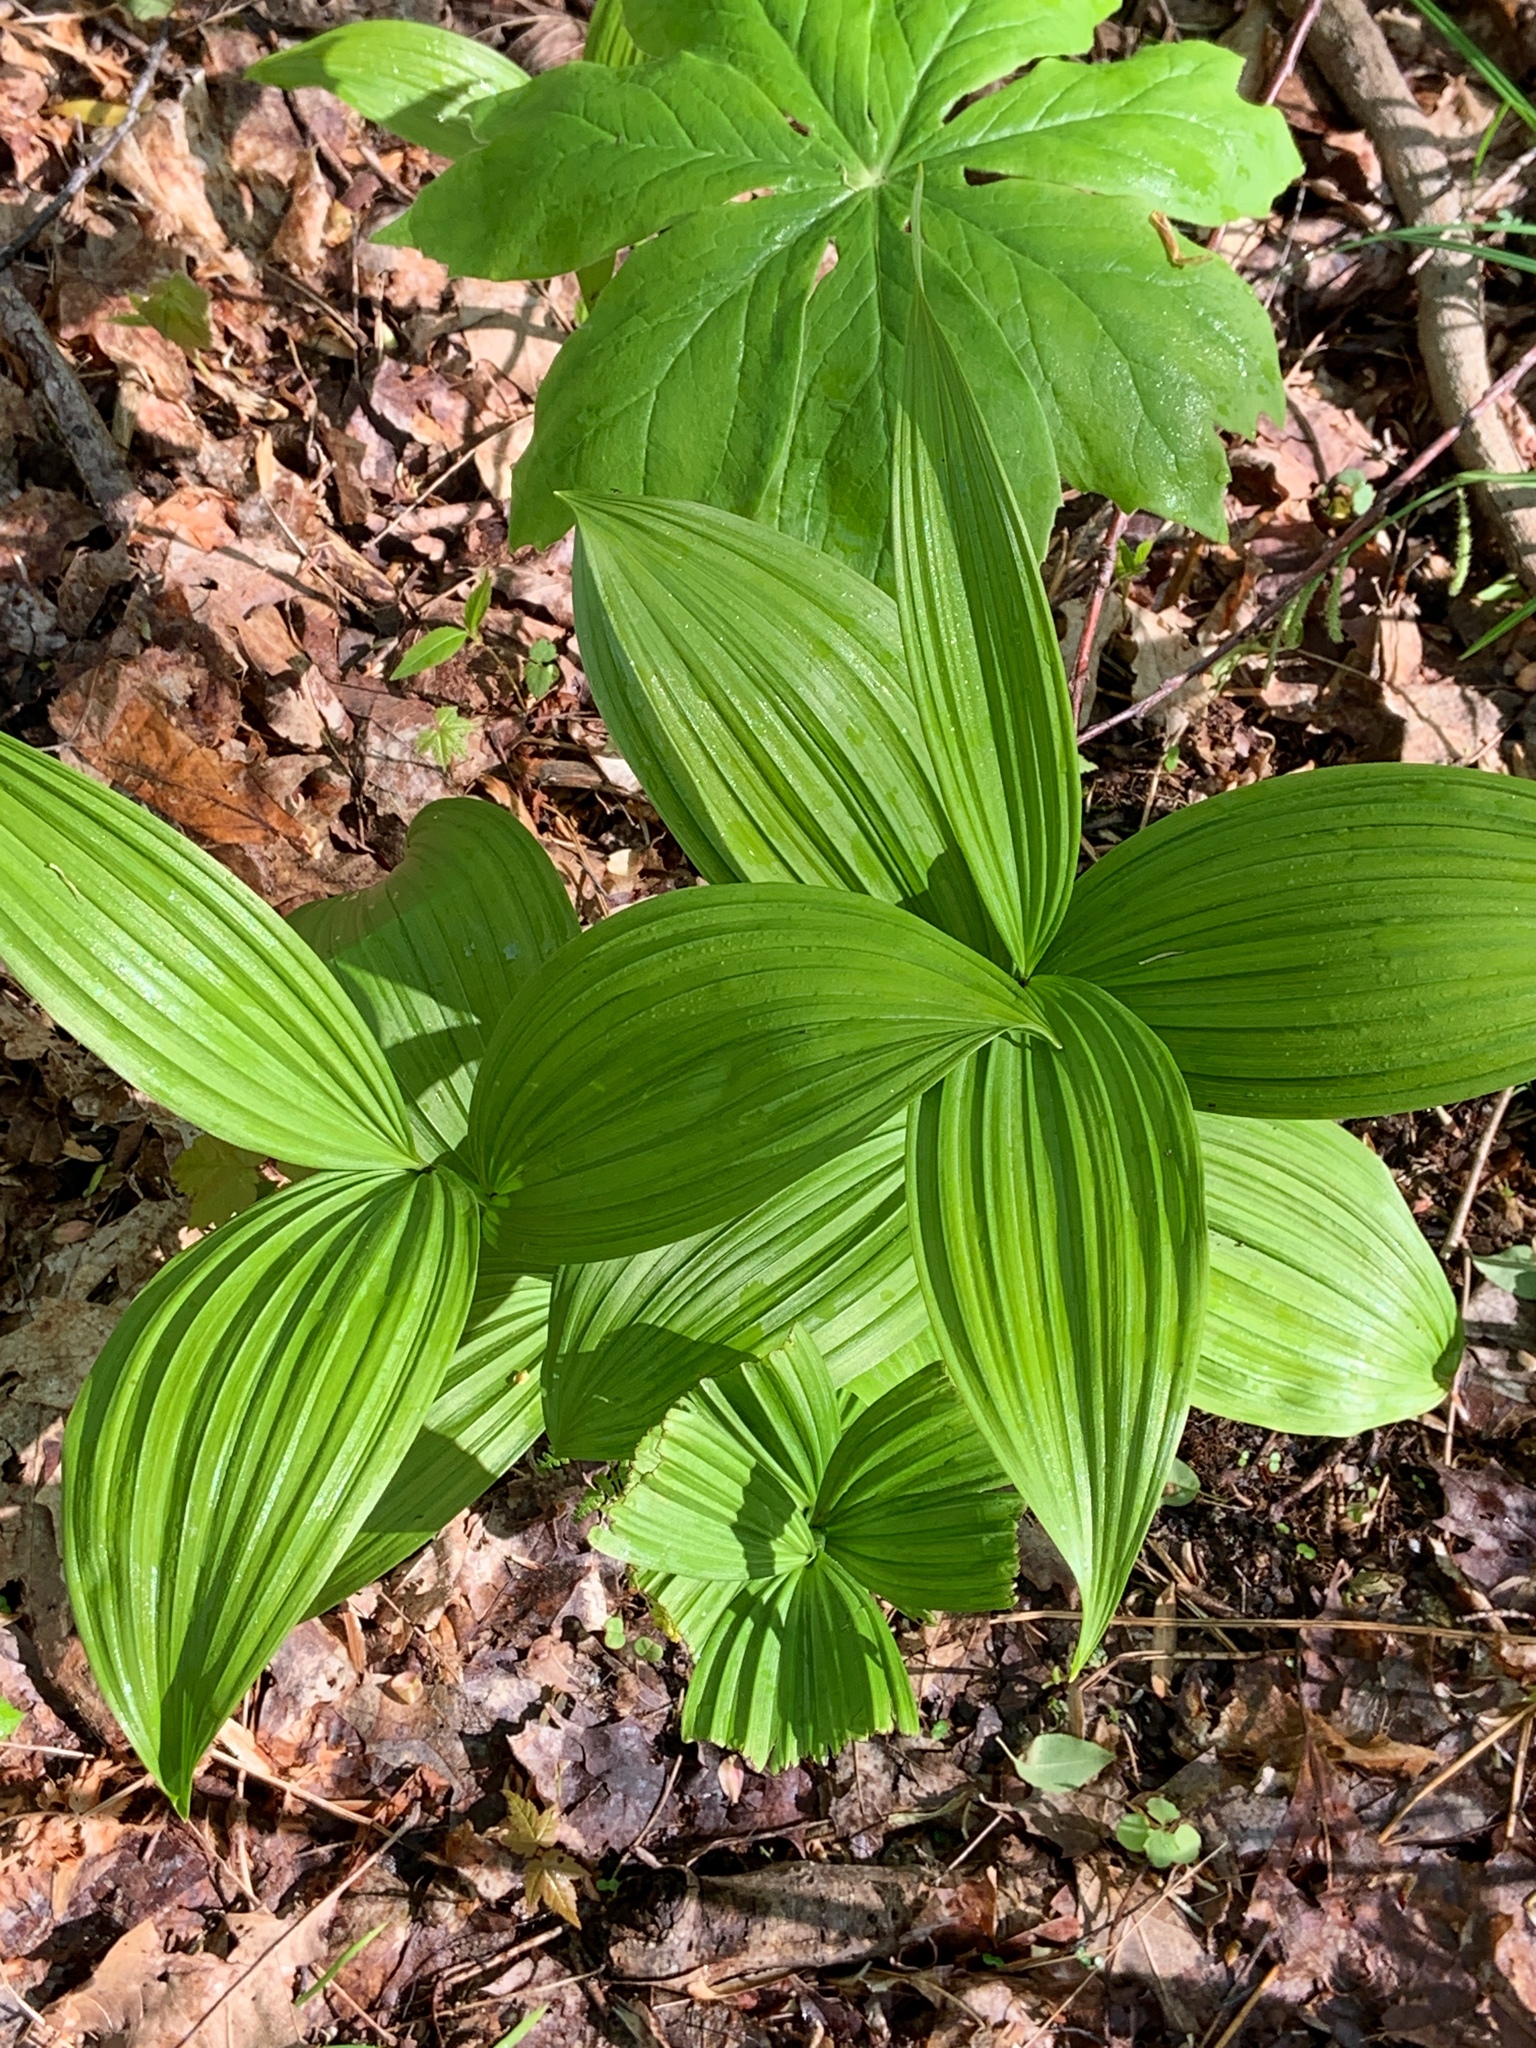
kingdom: Plantae
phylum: Tracheophyta
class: Liliopsida
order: Liliales
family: Melanthiaceae
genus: Veratrum
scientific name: Veratrum viride
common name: American false hellebore
